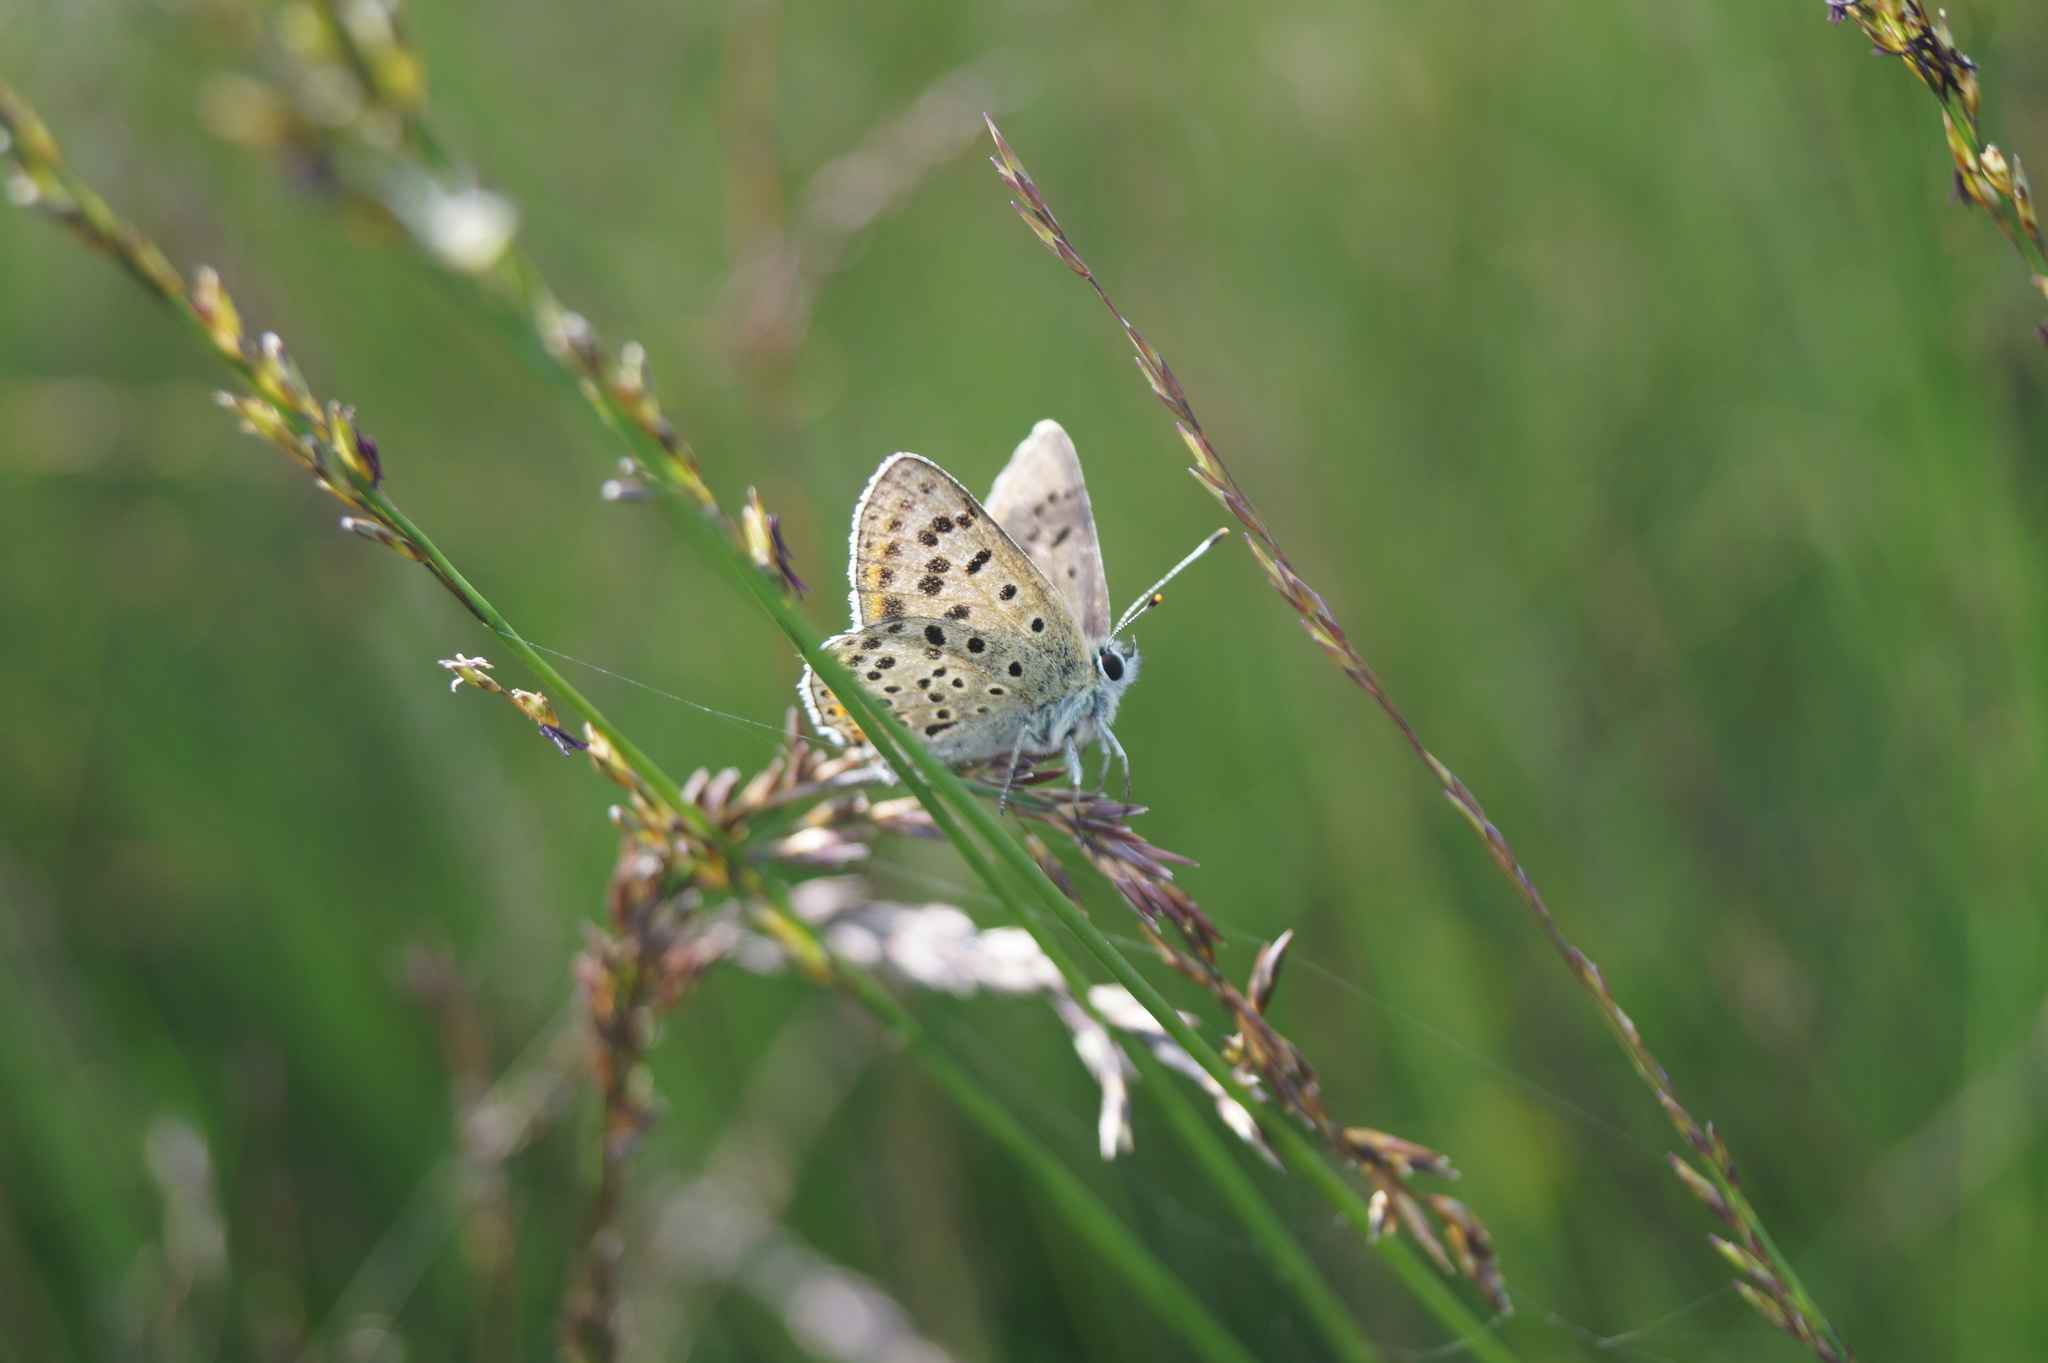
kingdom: Animalia
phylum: Arthropoda
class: Insecta
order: Lepidoptera
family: Lycaenidae
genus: Loweia
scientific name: Loweia tityrus
